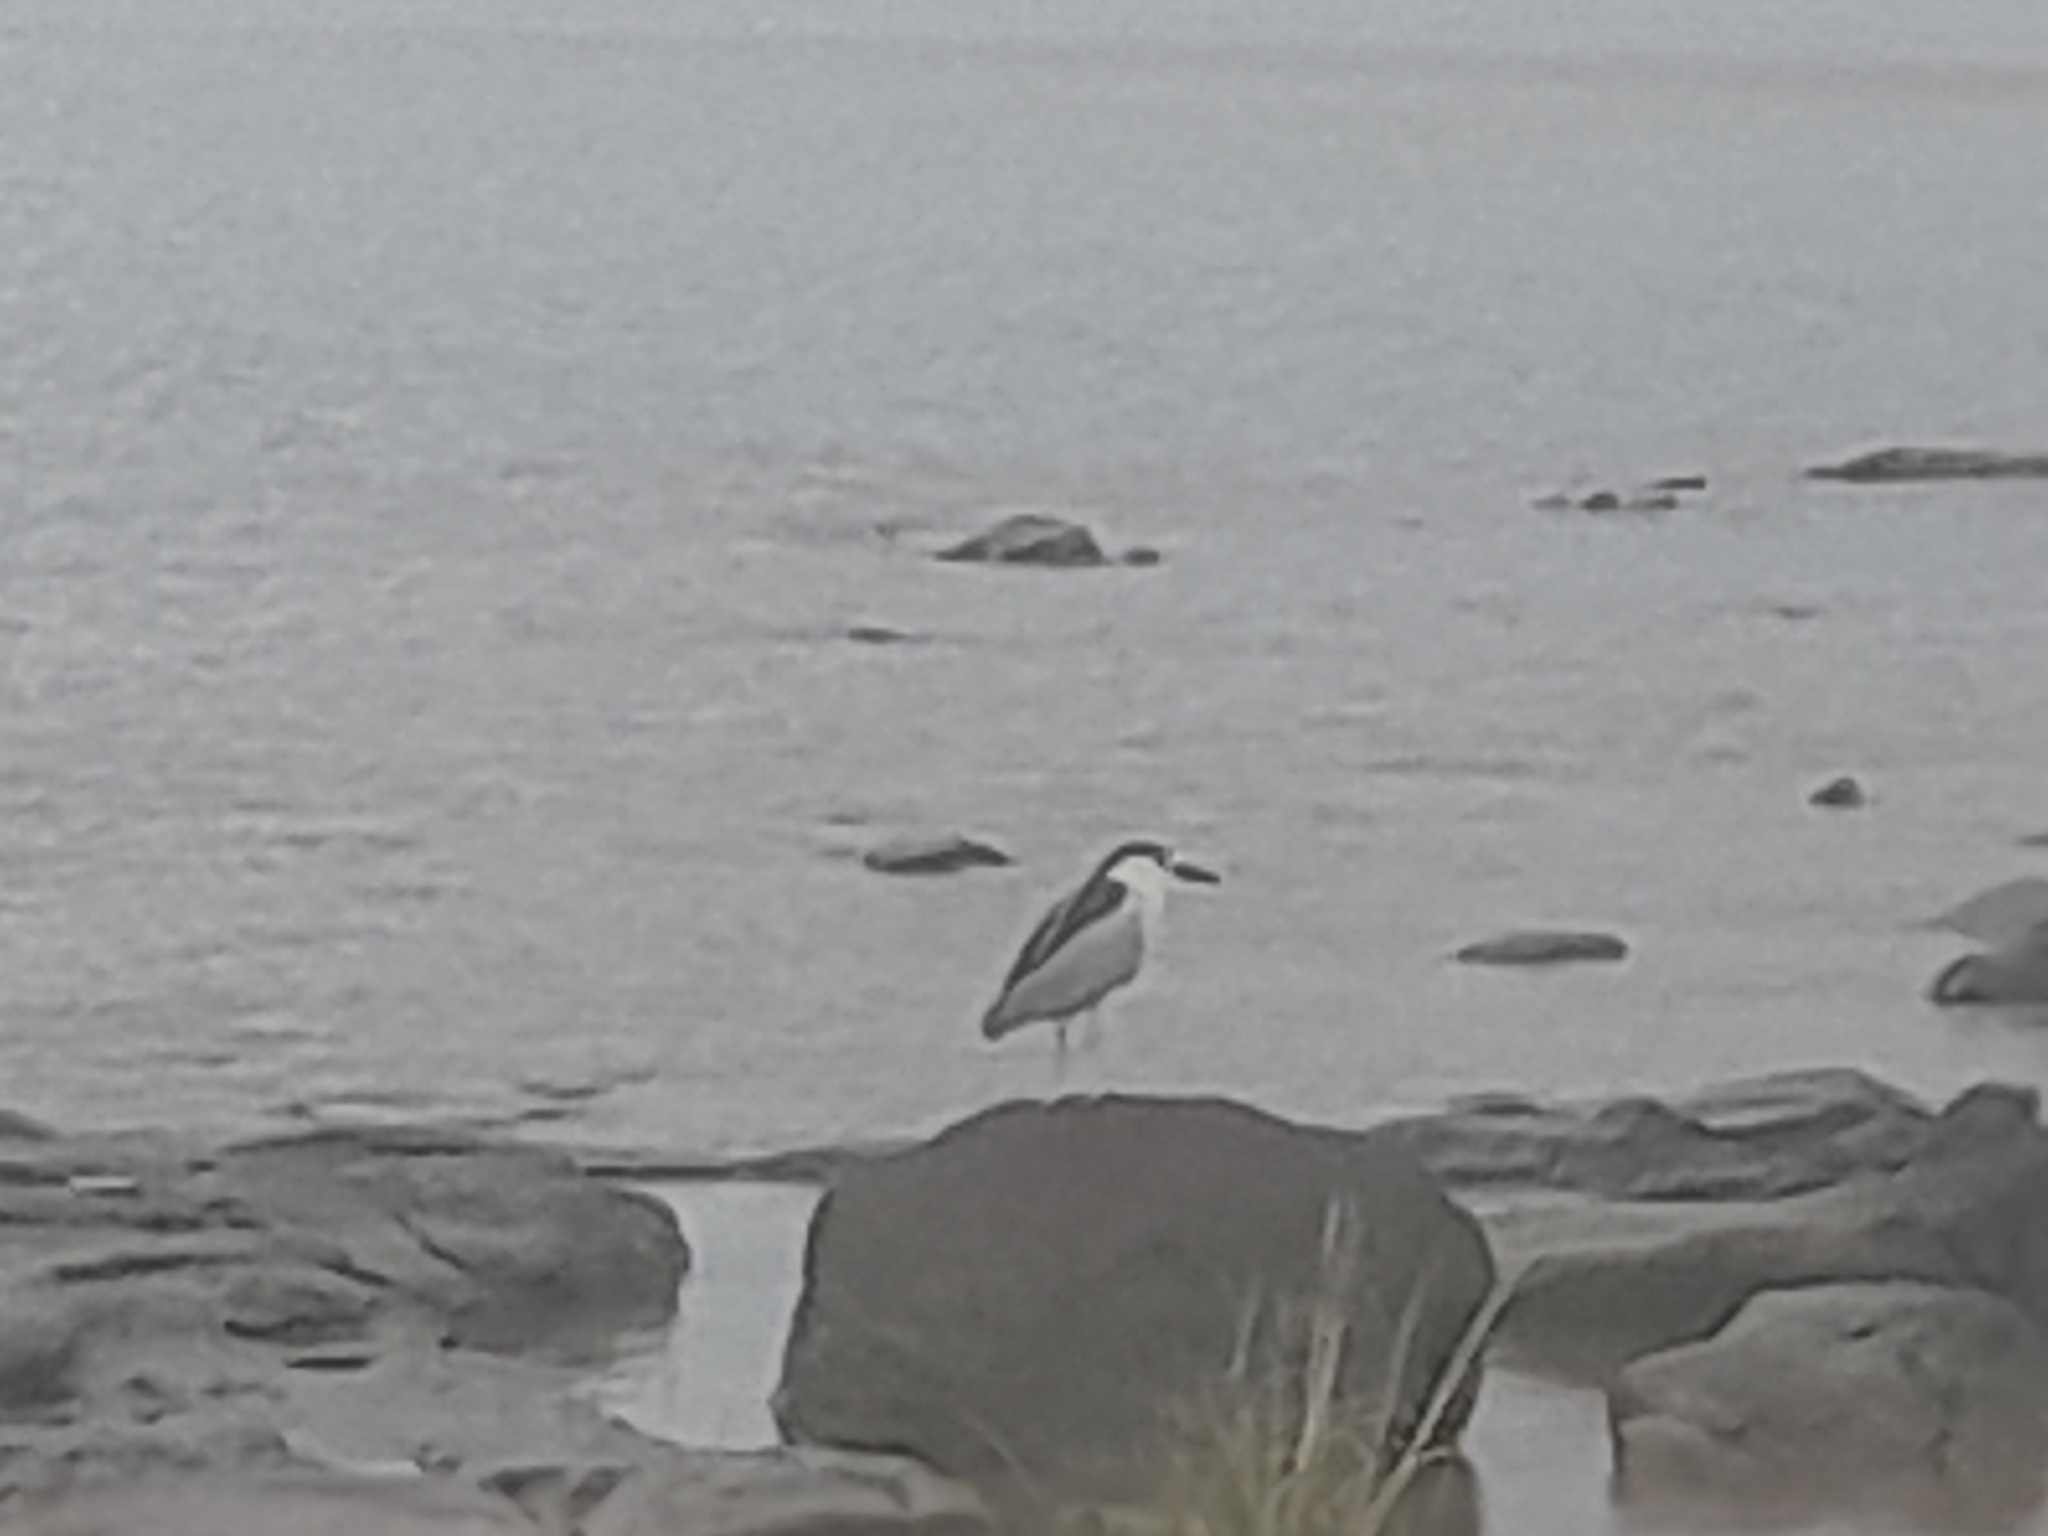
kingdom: Animalia
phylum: Chordata
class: Aves
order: Pelecaniformes
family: Ardeidae
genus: Nycticorax
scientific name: Nycticorax nycticorax
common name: Black-crowned night heron
